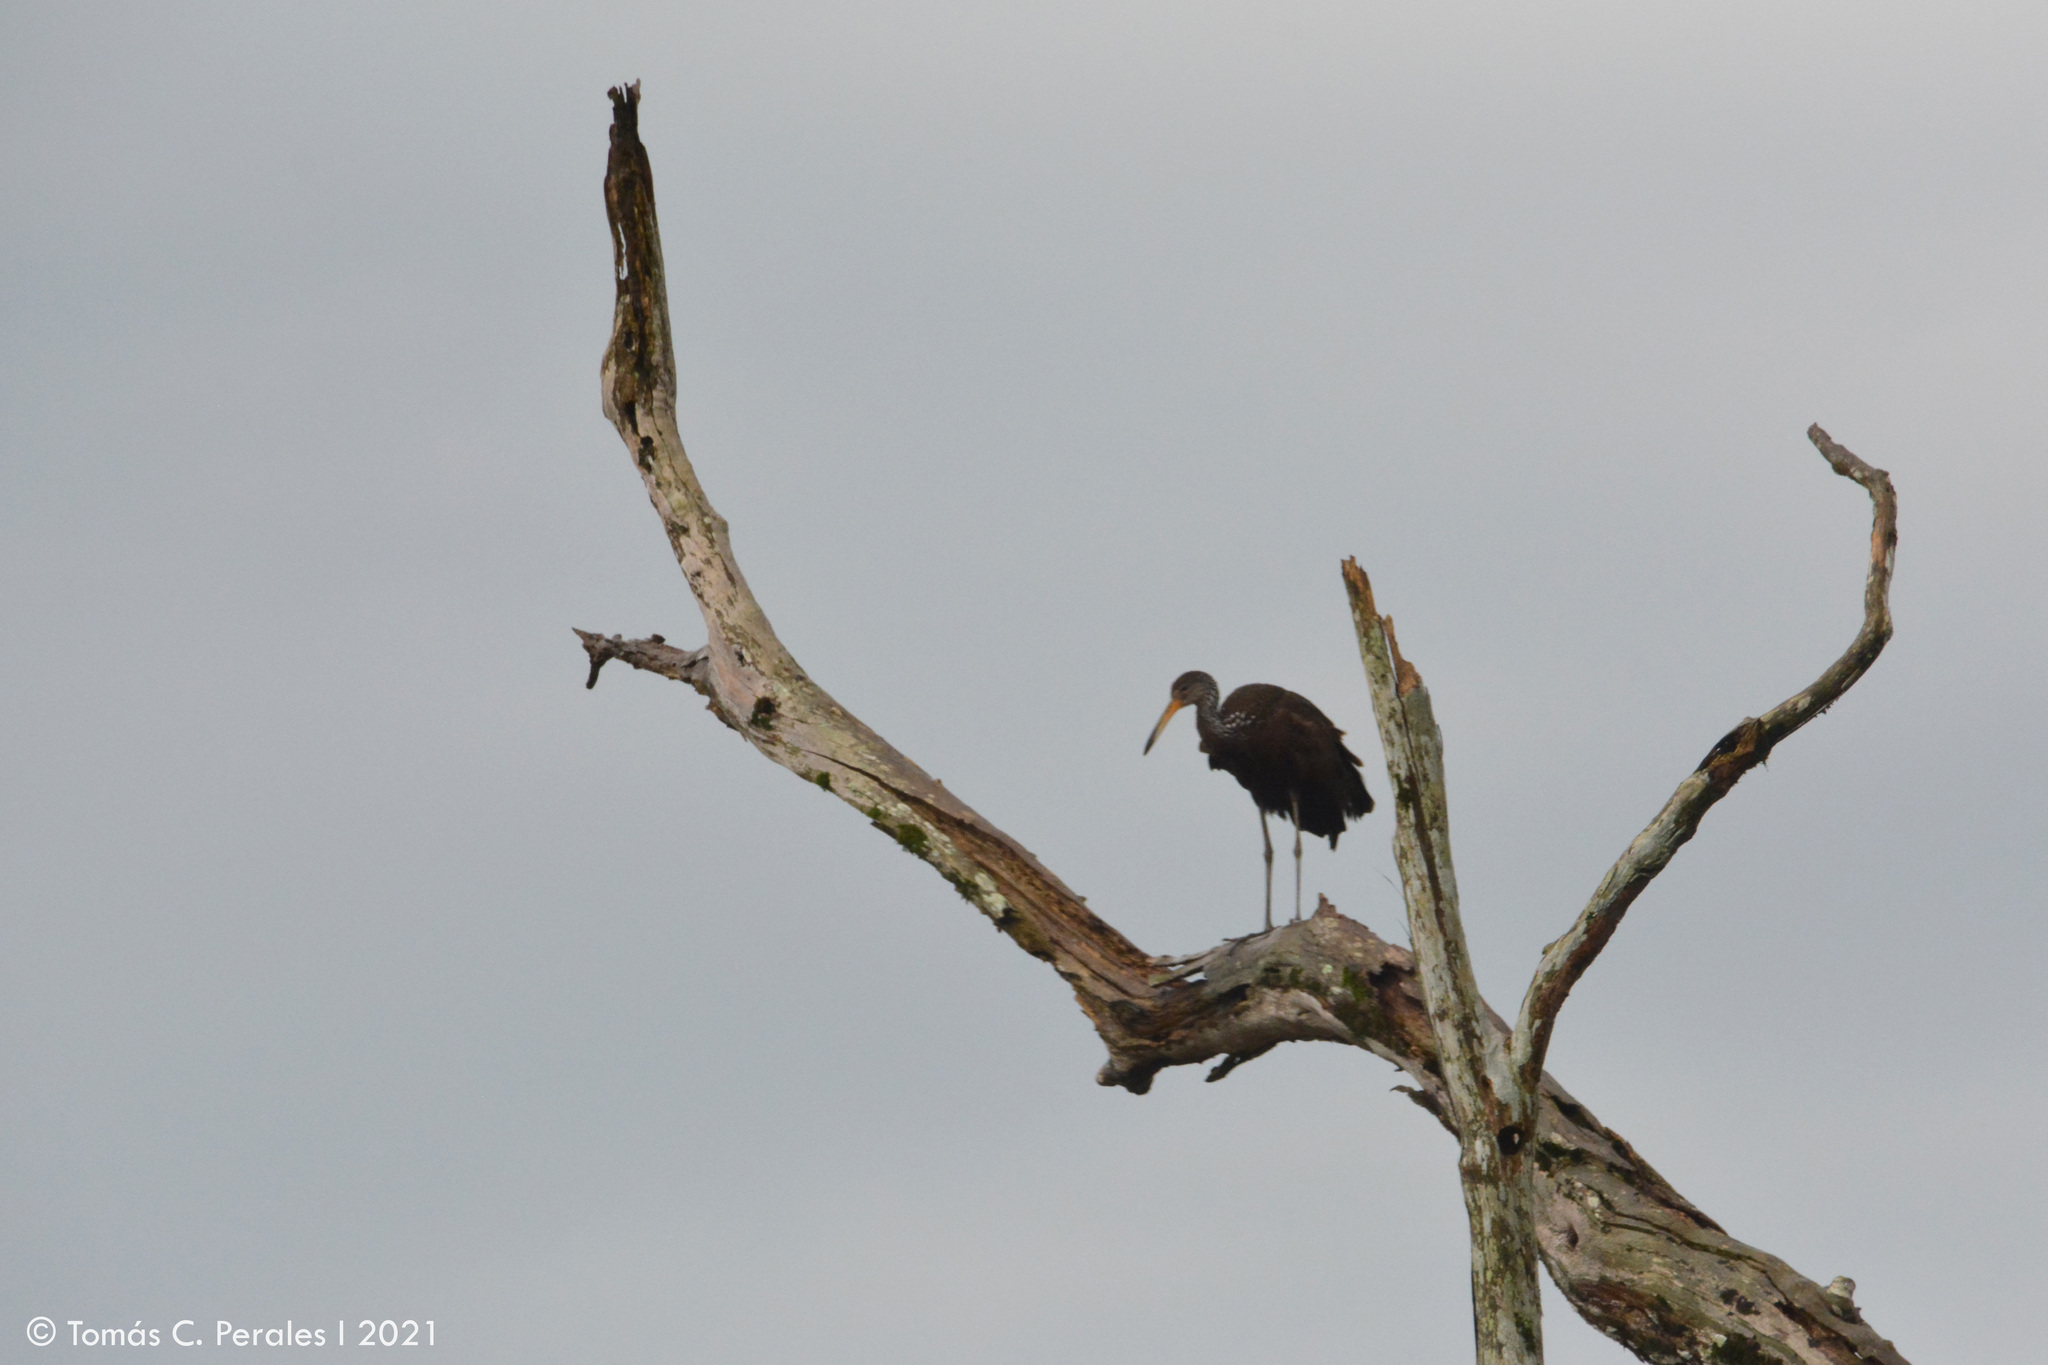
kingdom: Animalia
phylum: Chordata
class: Aves
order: Gruiformes
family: Aramidae
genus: Aramus
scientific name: Aramus guarauna
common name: Limpkin
